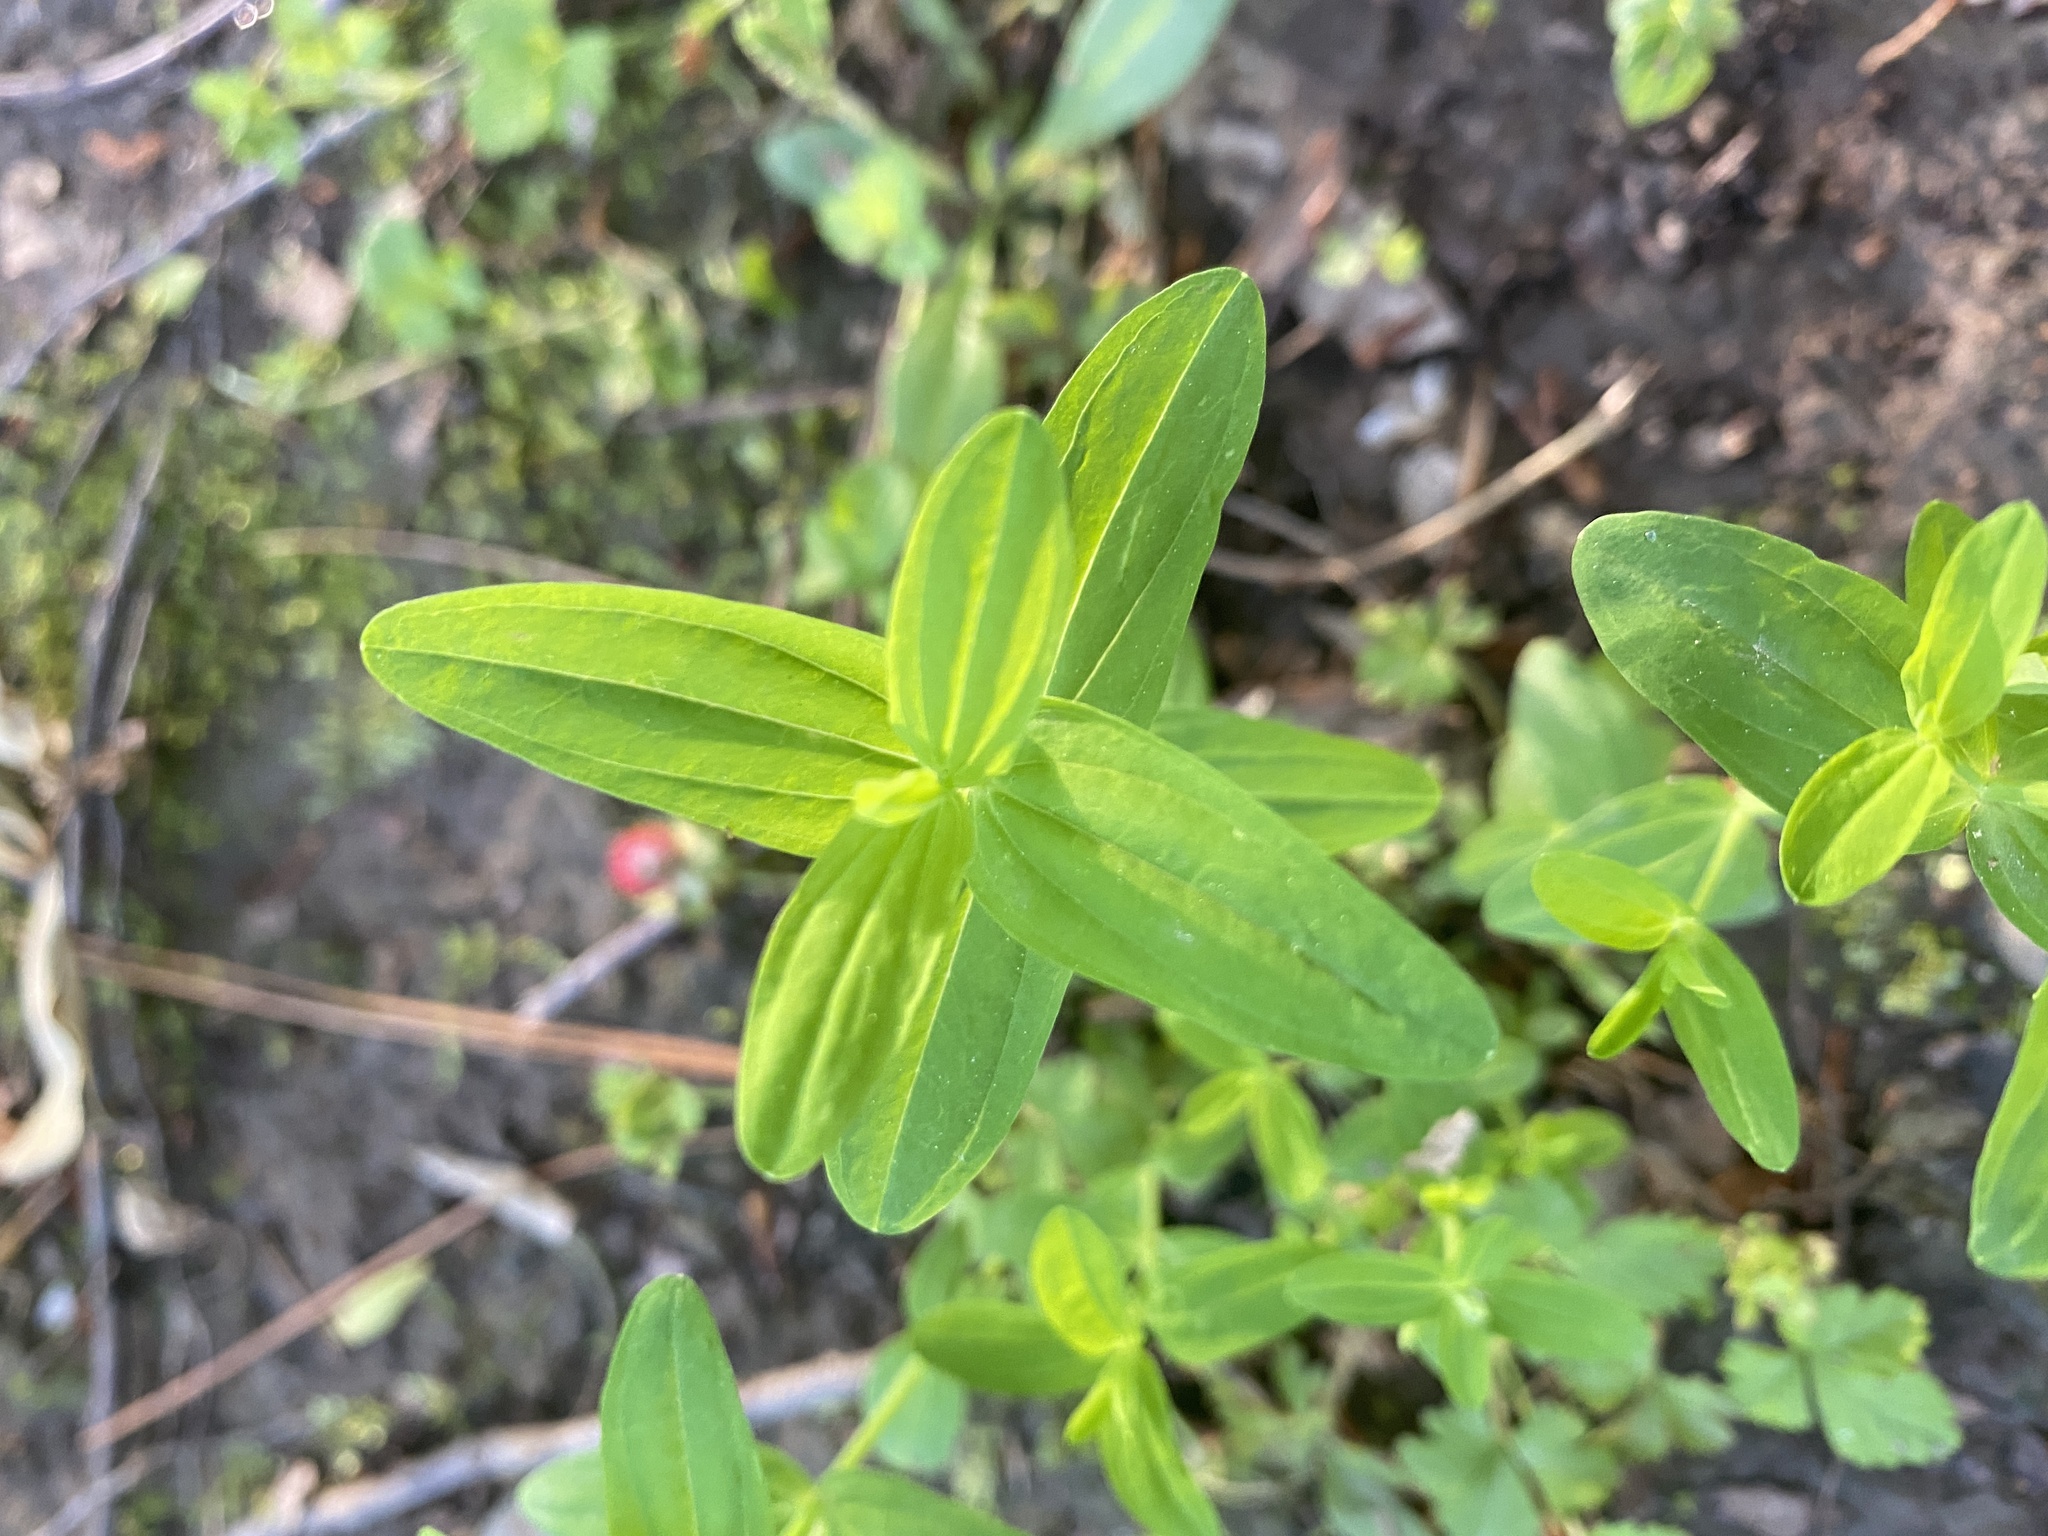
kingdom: Plantae
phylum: Tracheophyta
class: Magnoliopsida
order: Malpighiales
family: Hypericaceae
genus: Hypericum
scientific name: Hypericum mutilum
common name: Dwarf st. john's-wort
